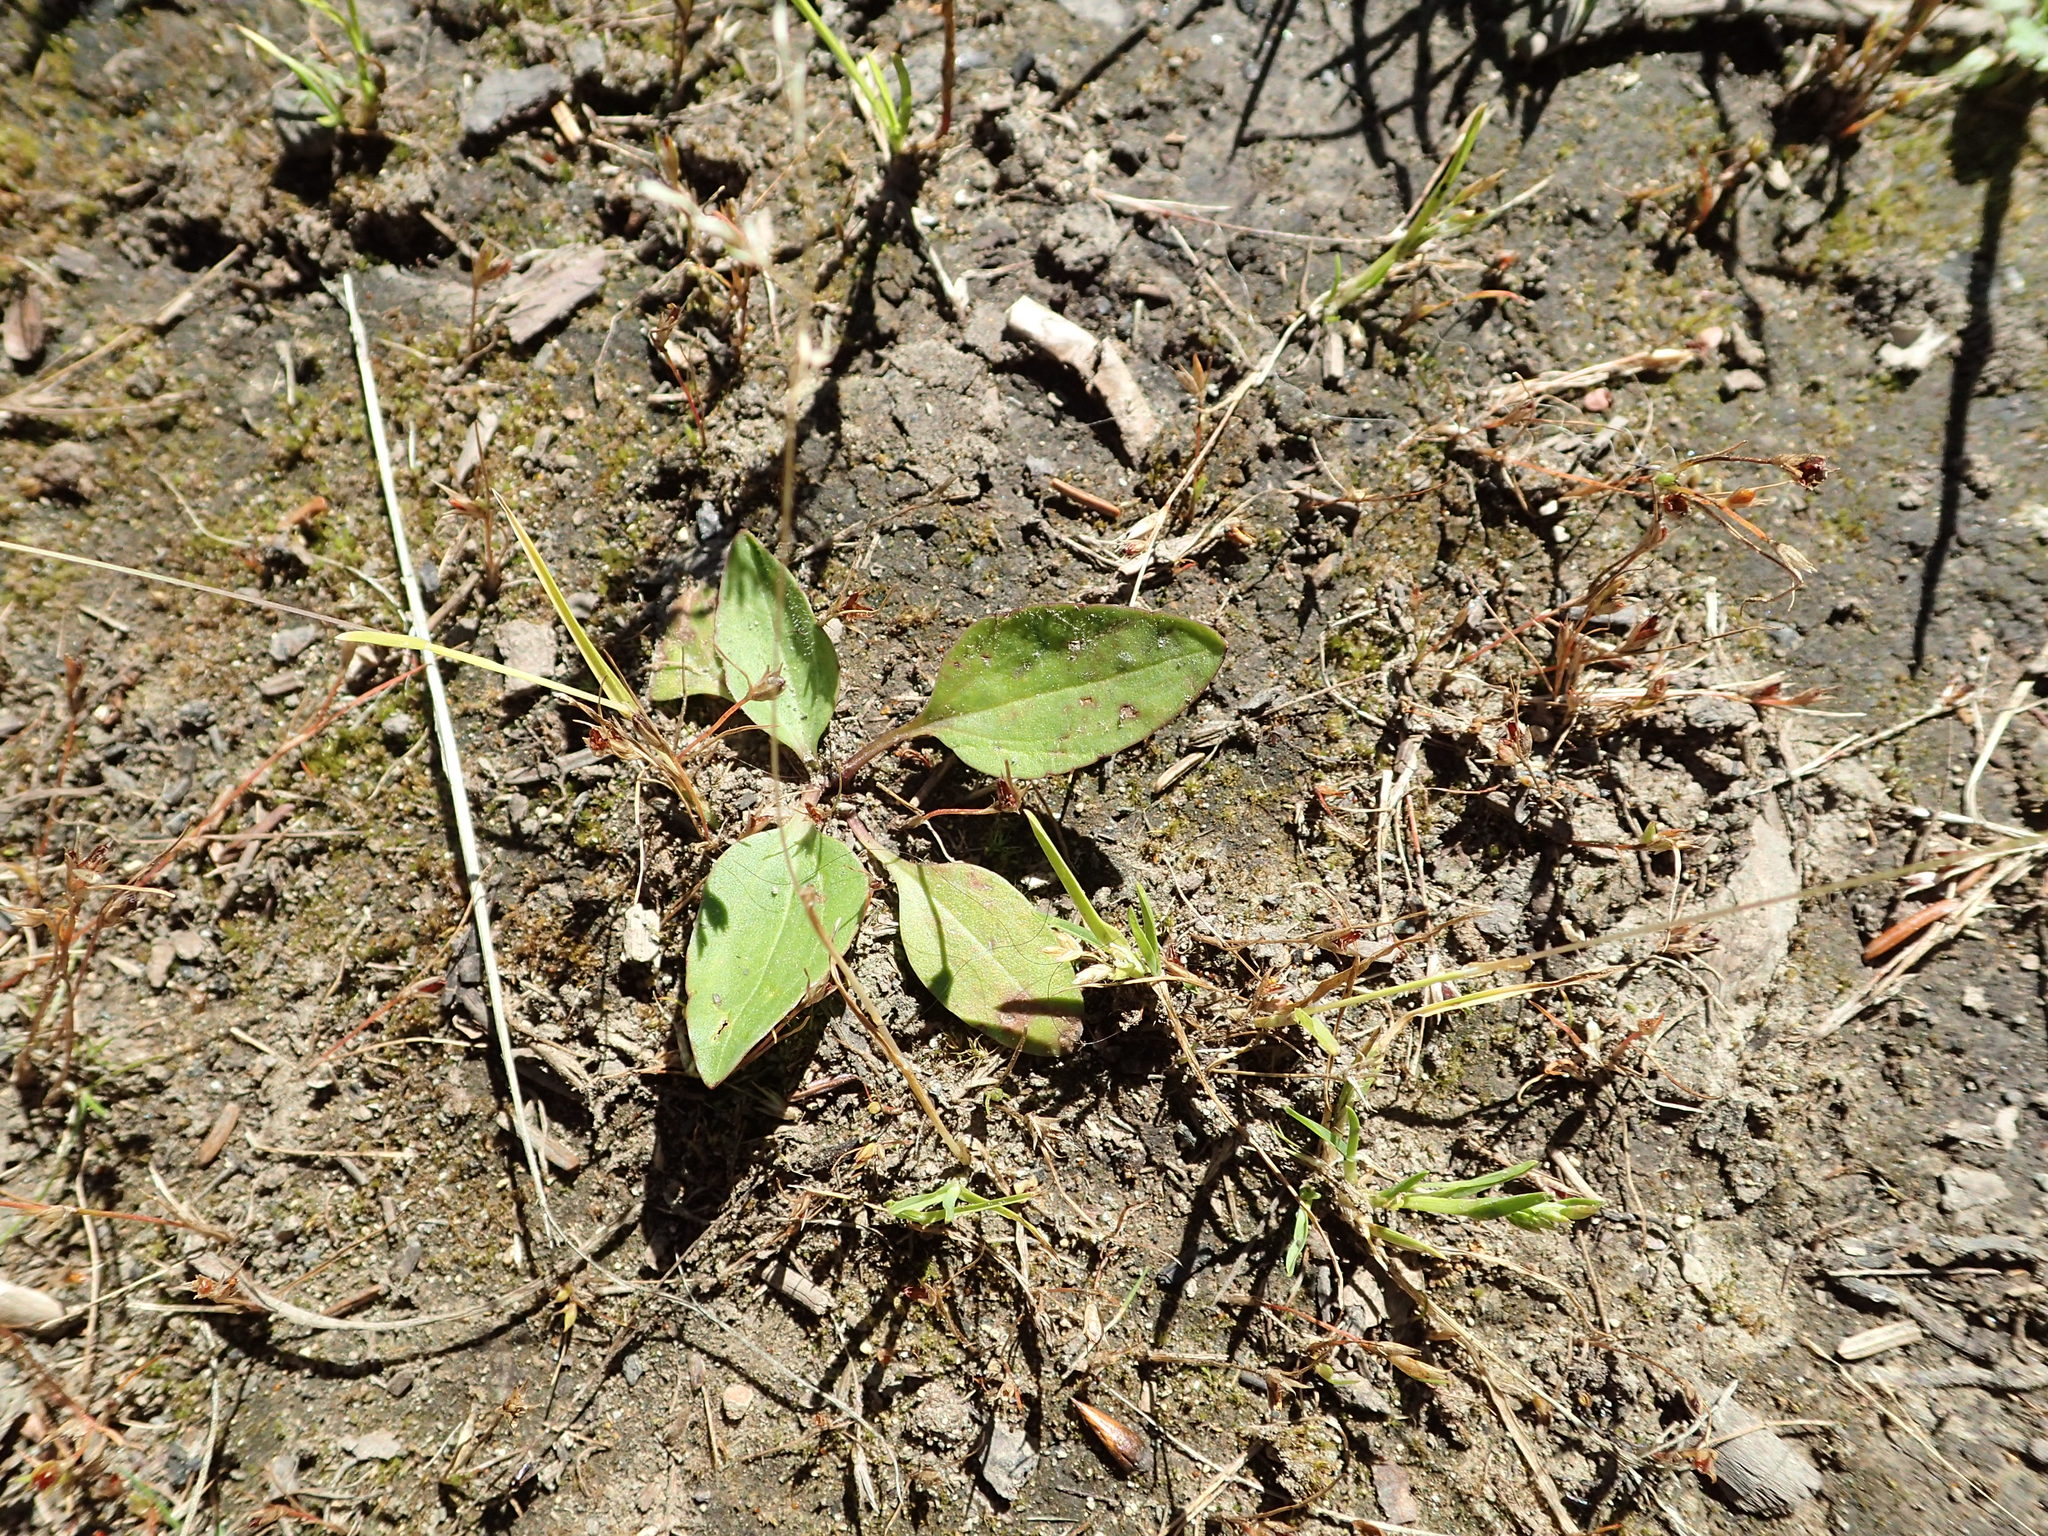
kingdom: Plantae
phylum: Tracheophyta
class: Magnoliopsida
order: Lamiales
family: Plantaginaceae
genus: Plantago
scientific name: Plantago major
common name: Common plantain
